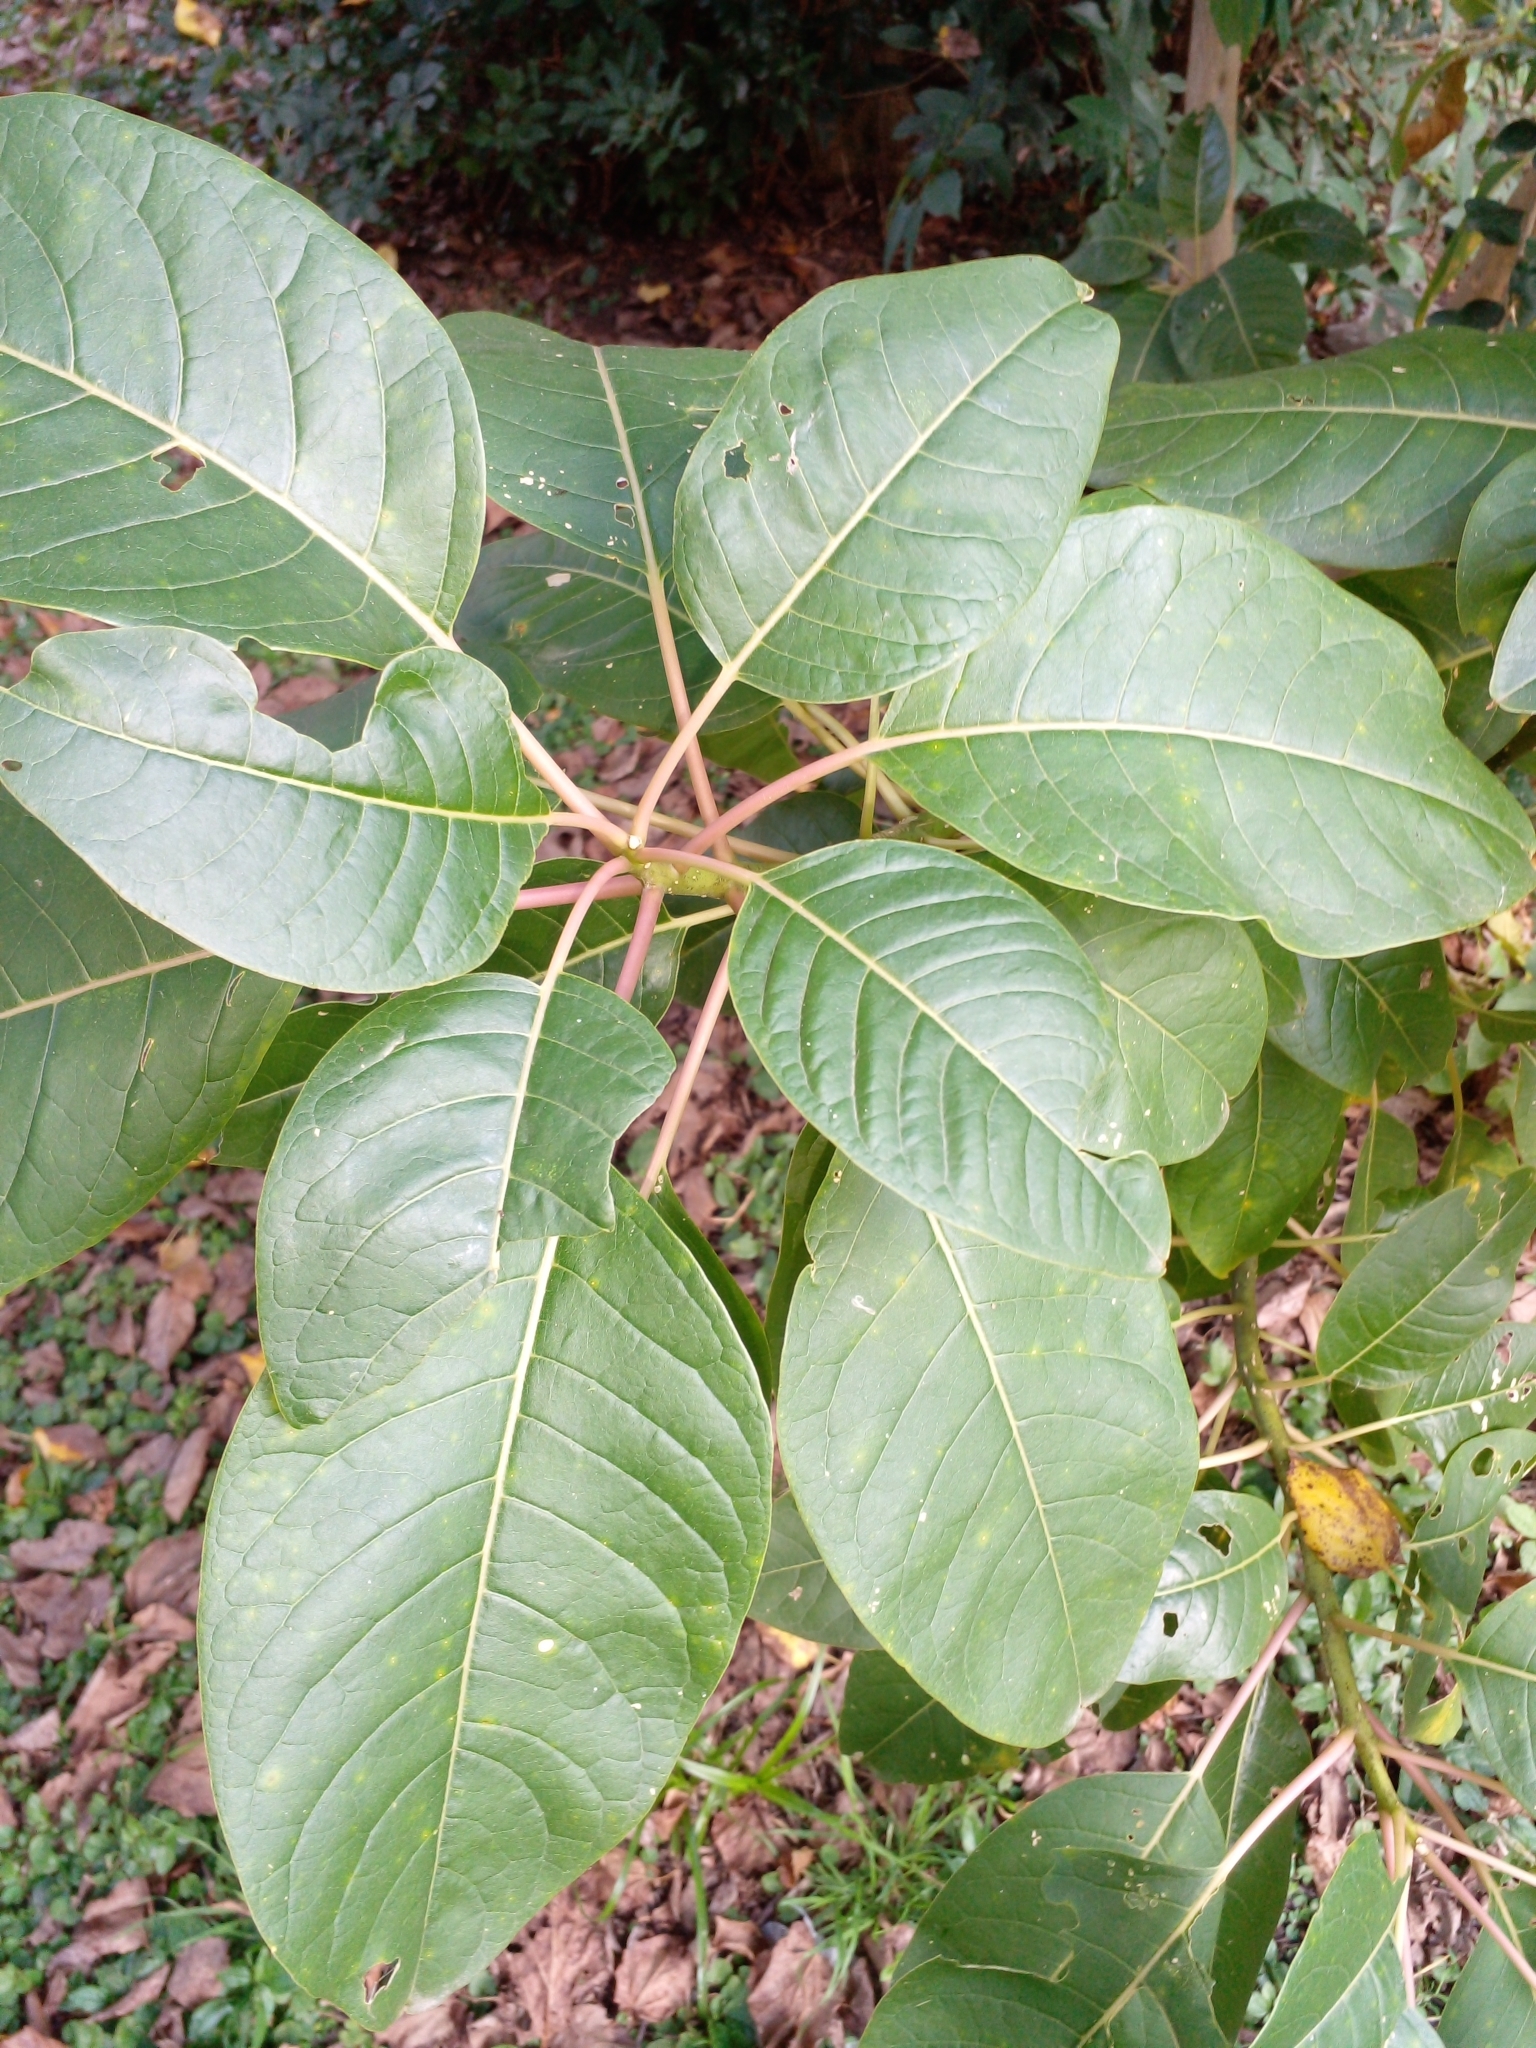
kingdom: Plantae
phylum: Tracheophyta
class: Magnoliopsida
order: Caryophyllales
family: Phytolaccaceae
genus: Phytolacca
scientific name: Phytolacca dioica
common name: Pokeweed
